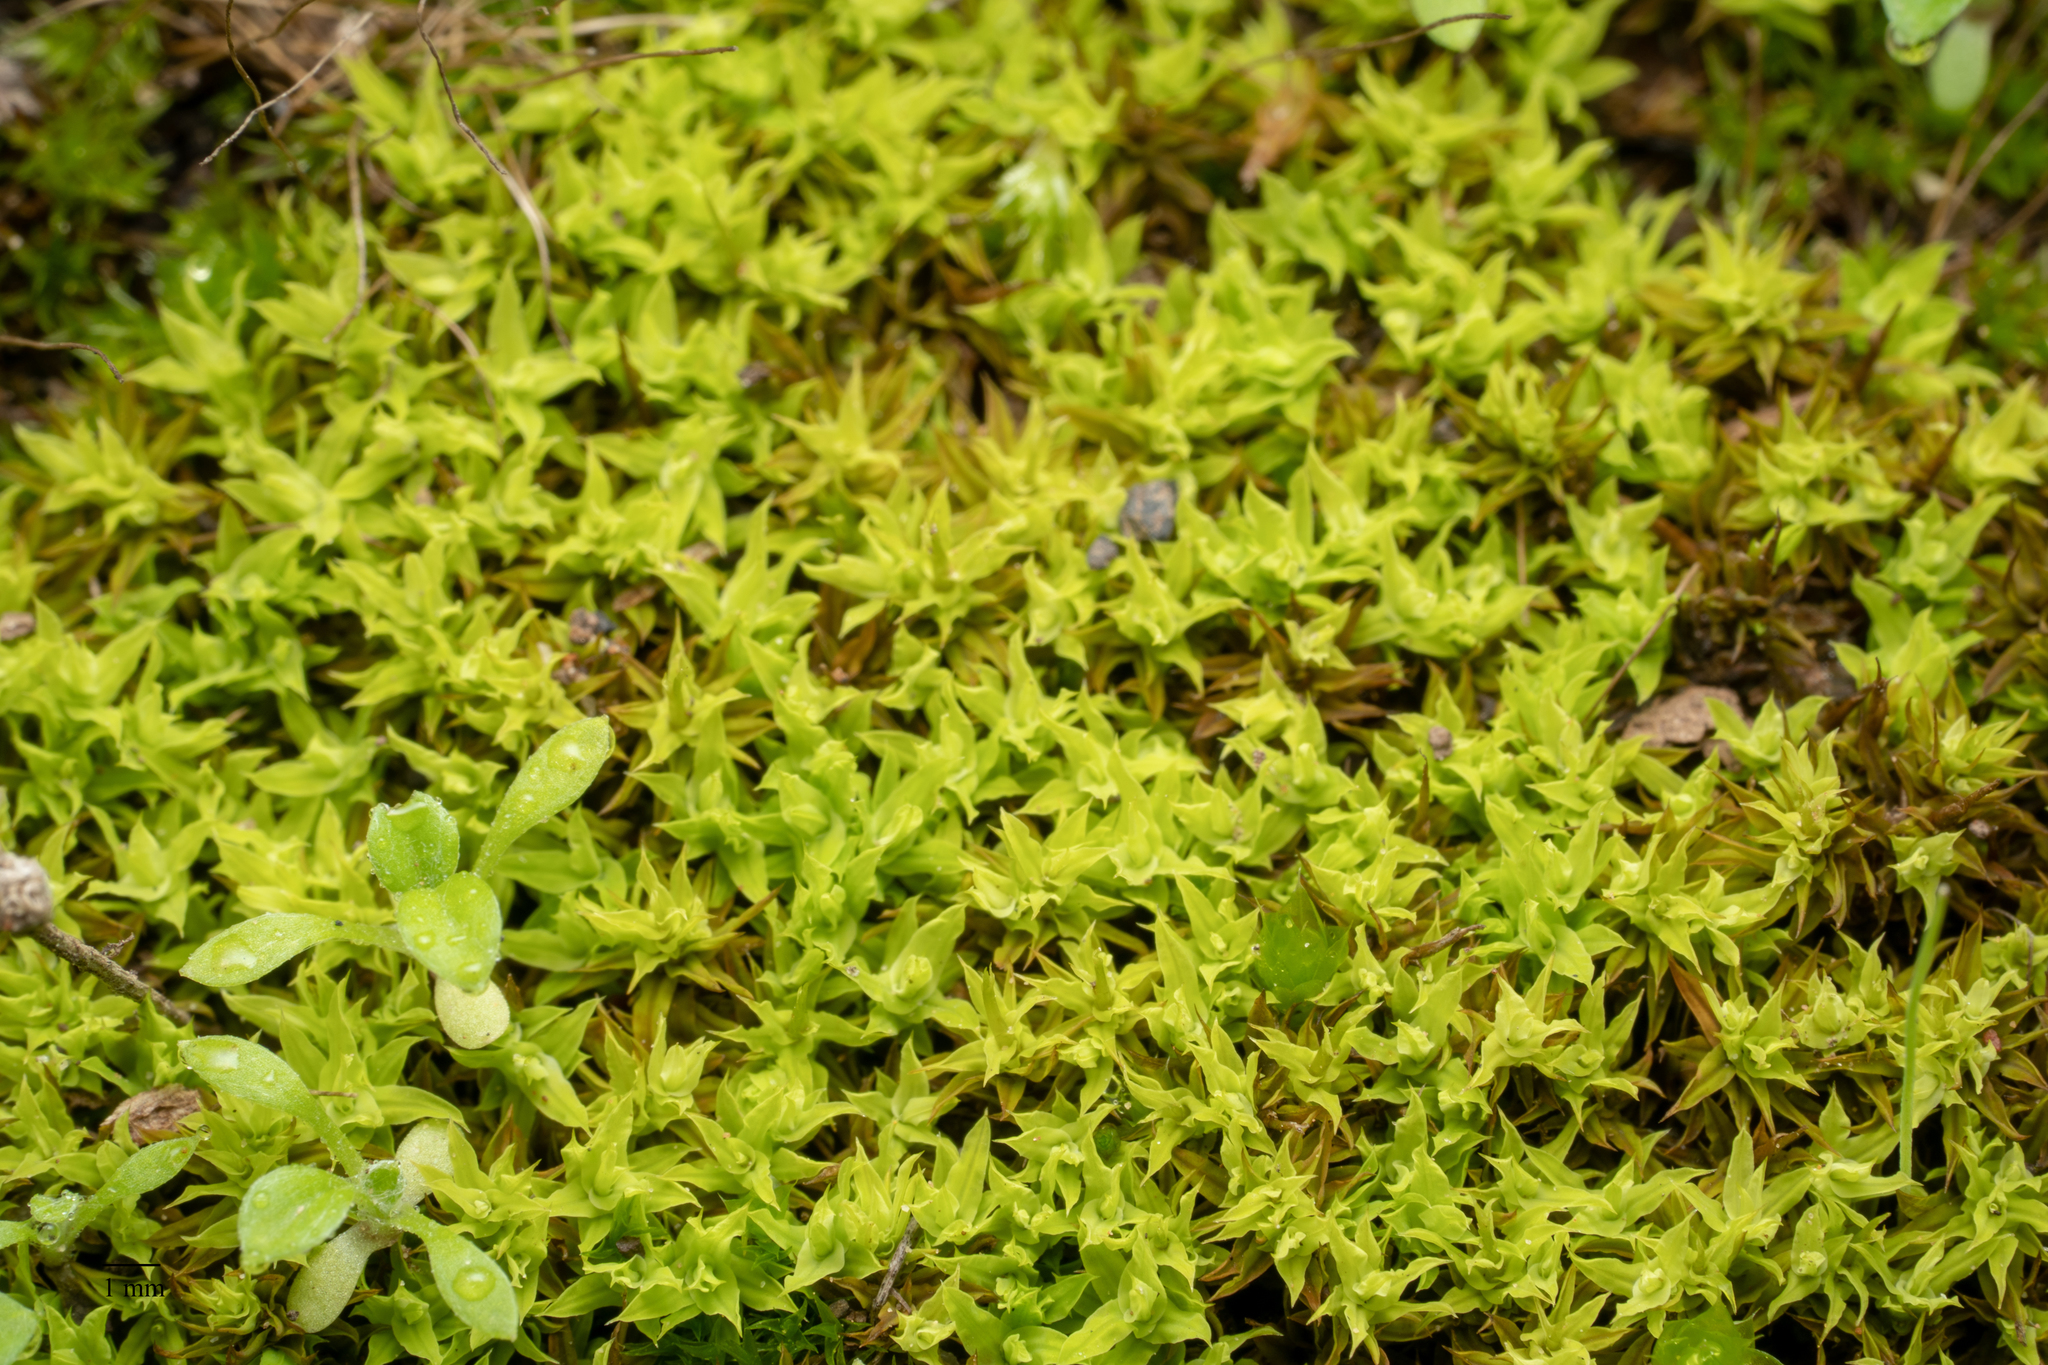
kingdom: Plantae
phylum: Bryophyta
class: Bryopsida
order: Pottiales
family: Pottiaceae
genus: Barbula
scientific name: Barbula calycina
